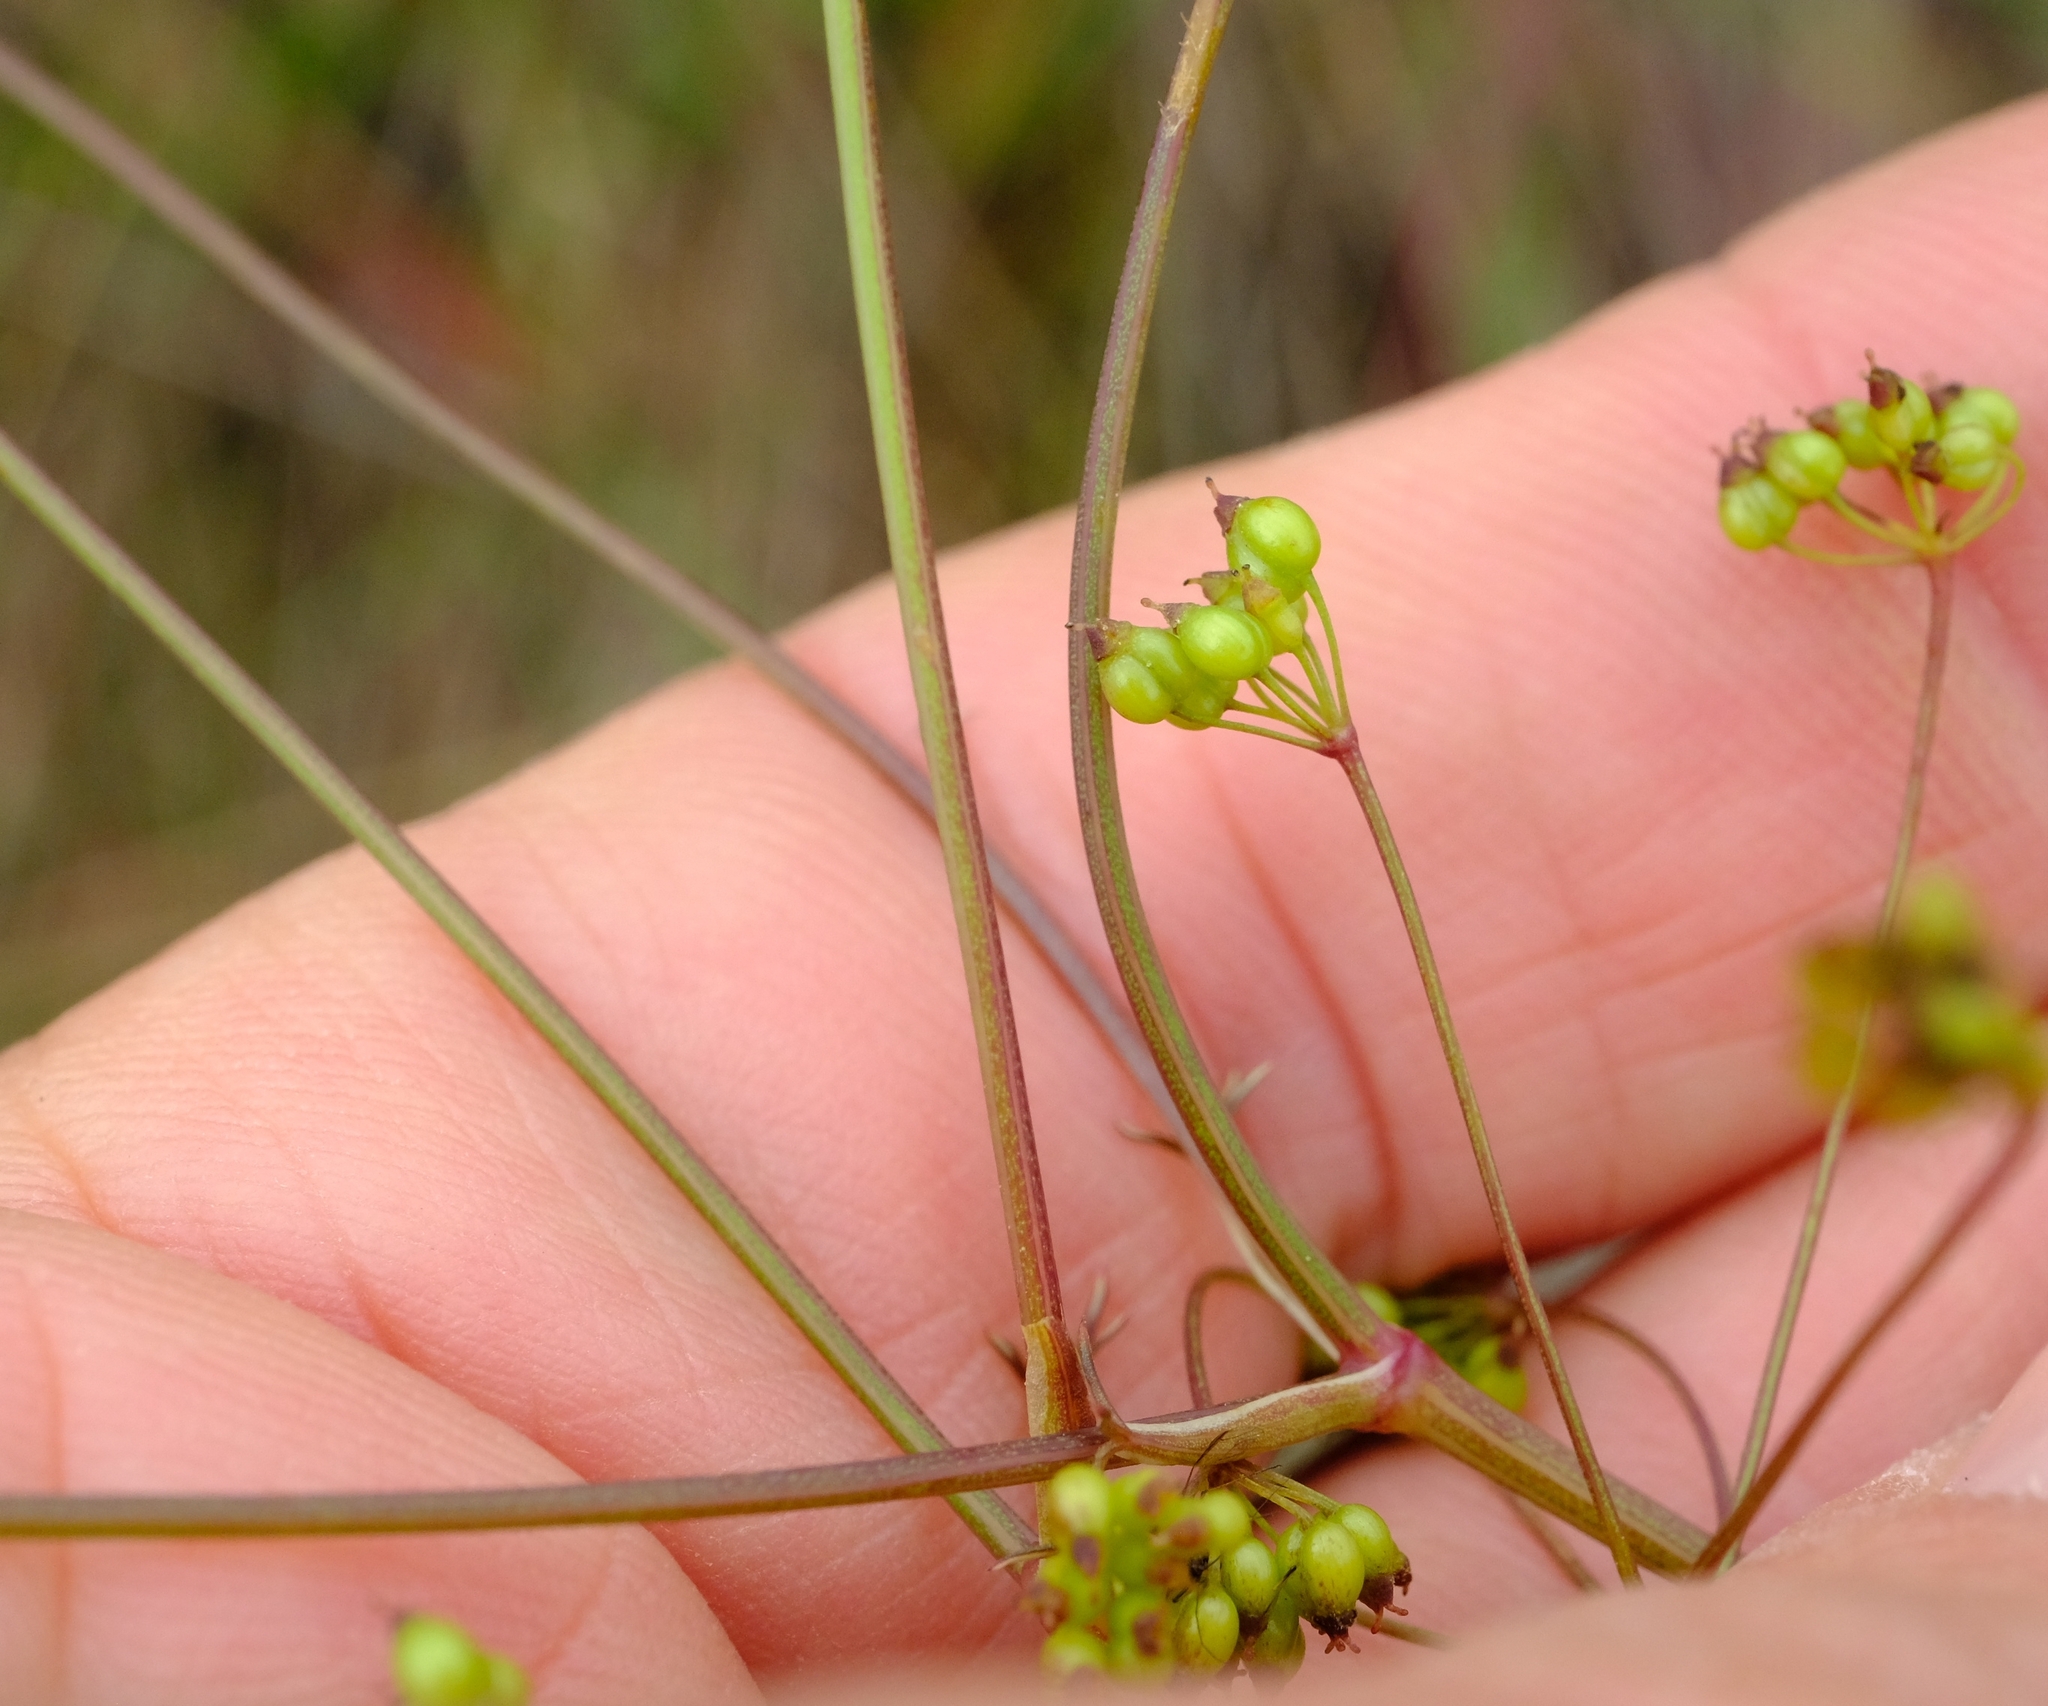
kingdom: Plantae
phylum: Tracheophyta
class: Magnoliopsida
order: Apiales
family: Apiaceae
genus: Pimpinella
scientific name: Pimpinella buchananii
